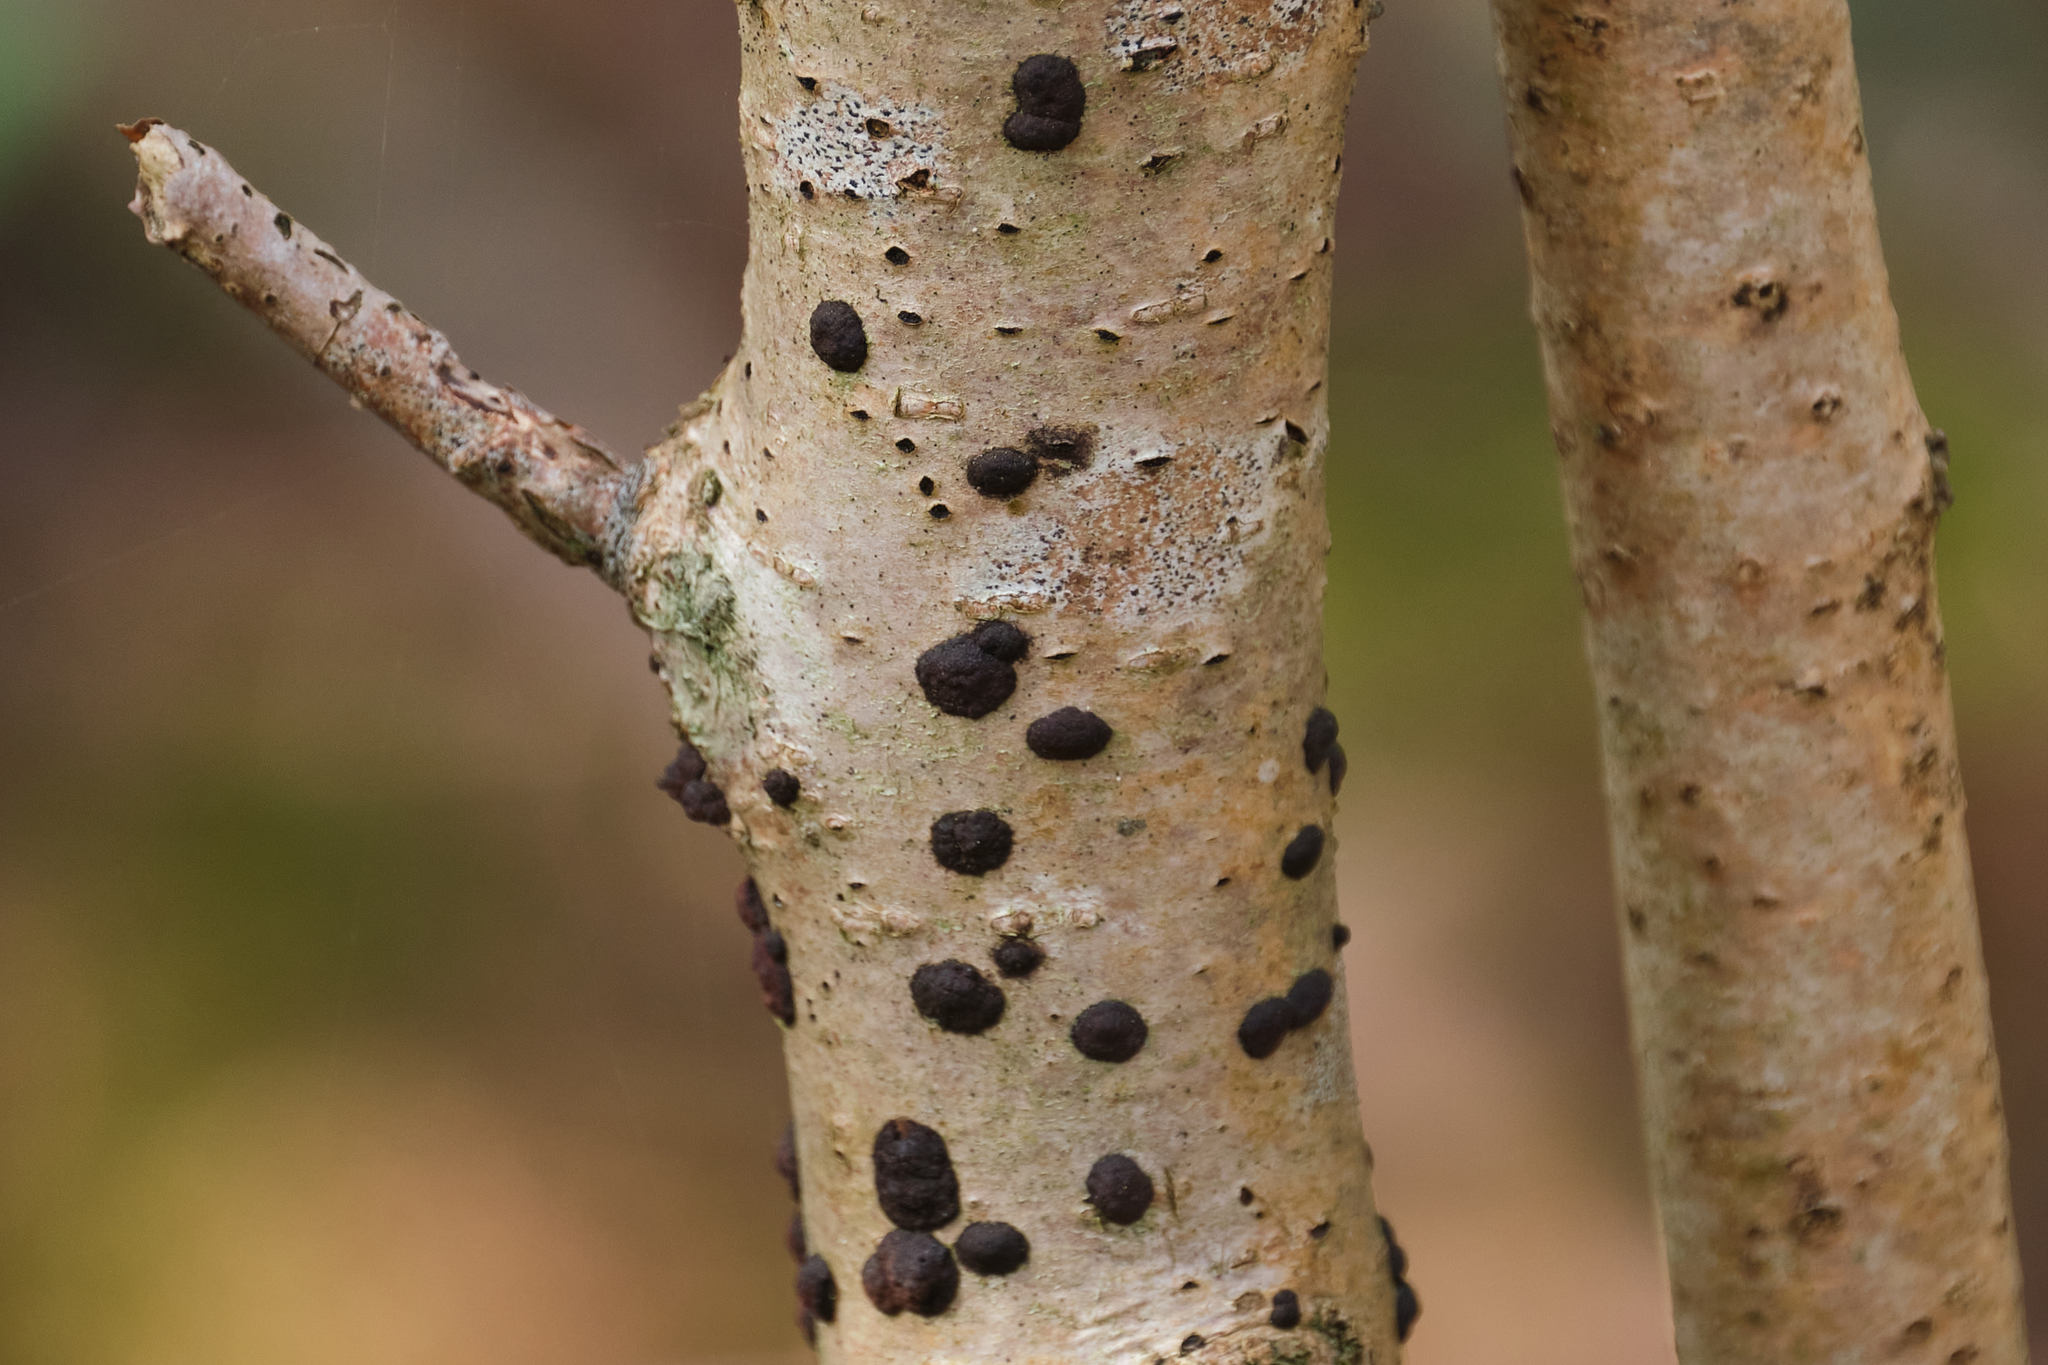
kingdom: Fungi
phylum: Ascomycota
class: Sordariomycetes
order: Xylariales
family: Hypoxylaceae
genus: Jackrogersella
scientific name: Jackrogersella multiformis
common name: Birch woodwart
